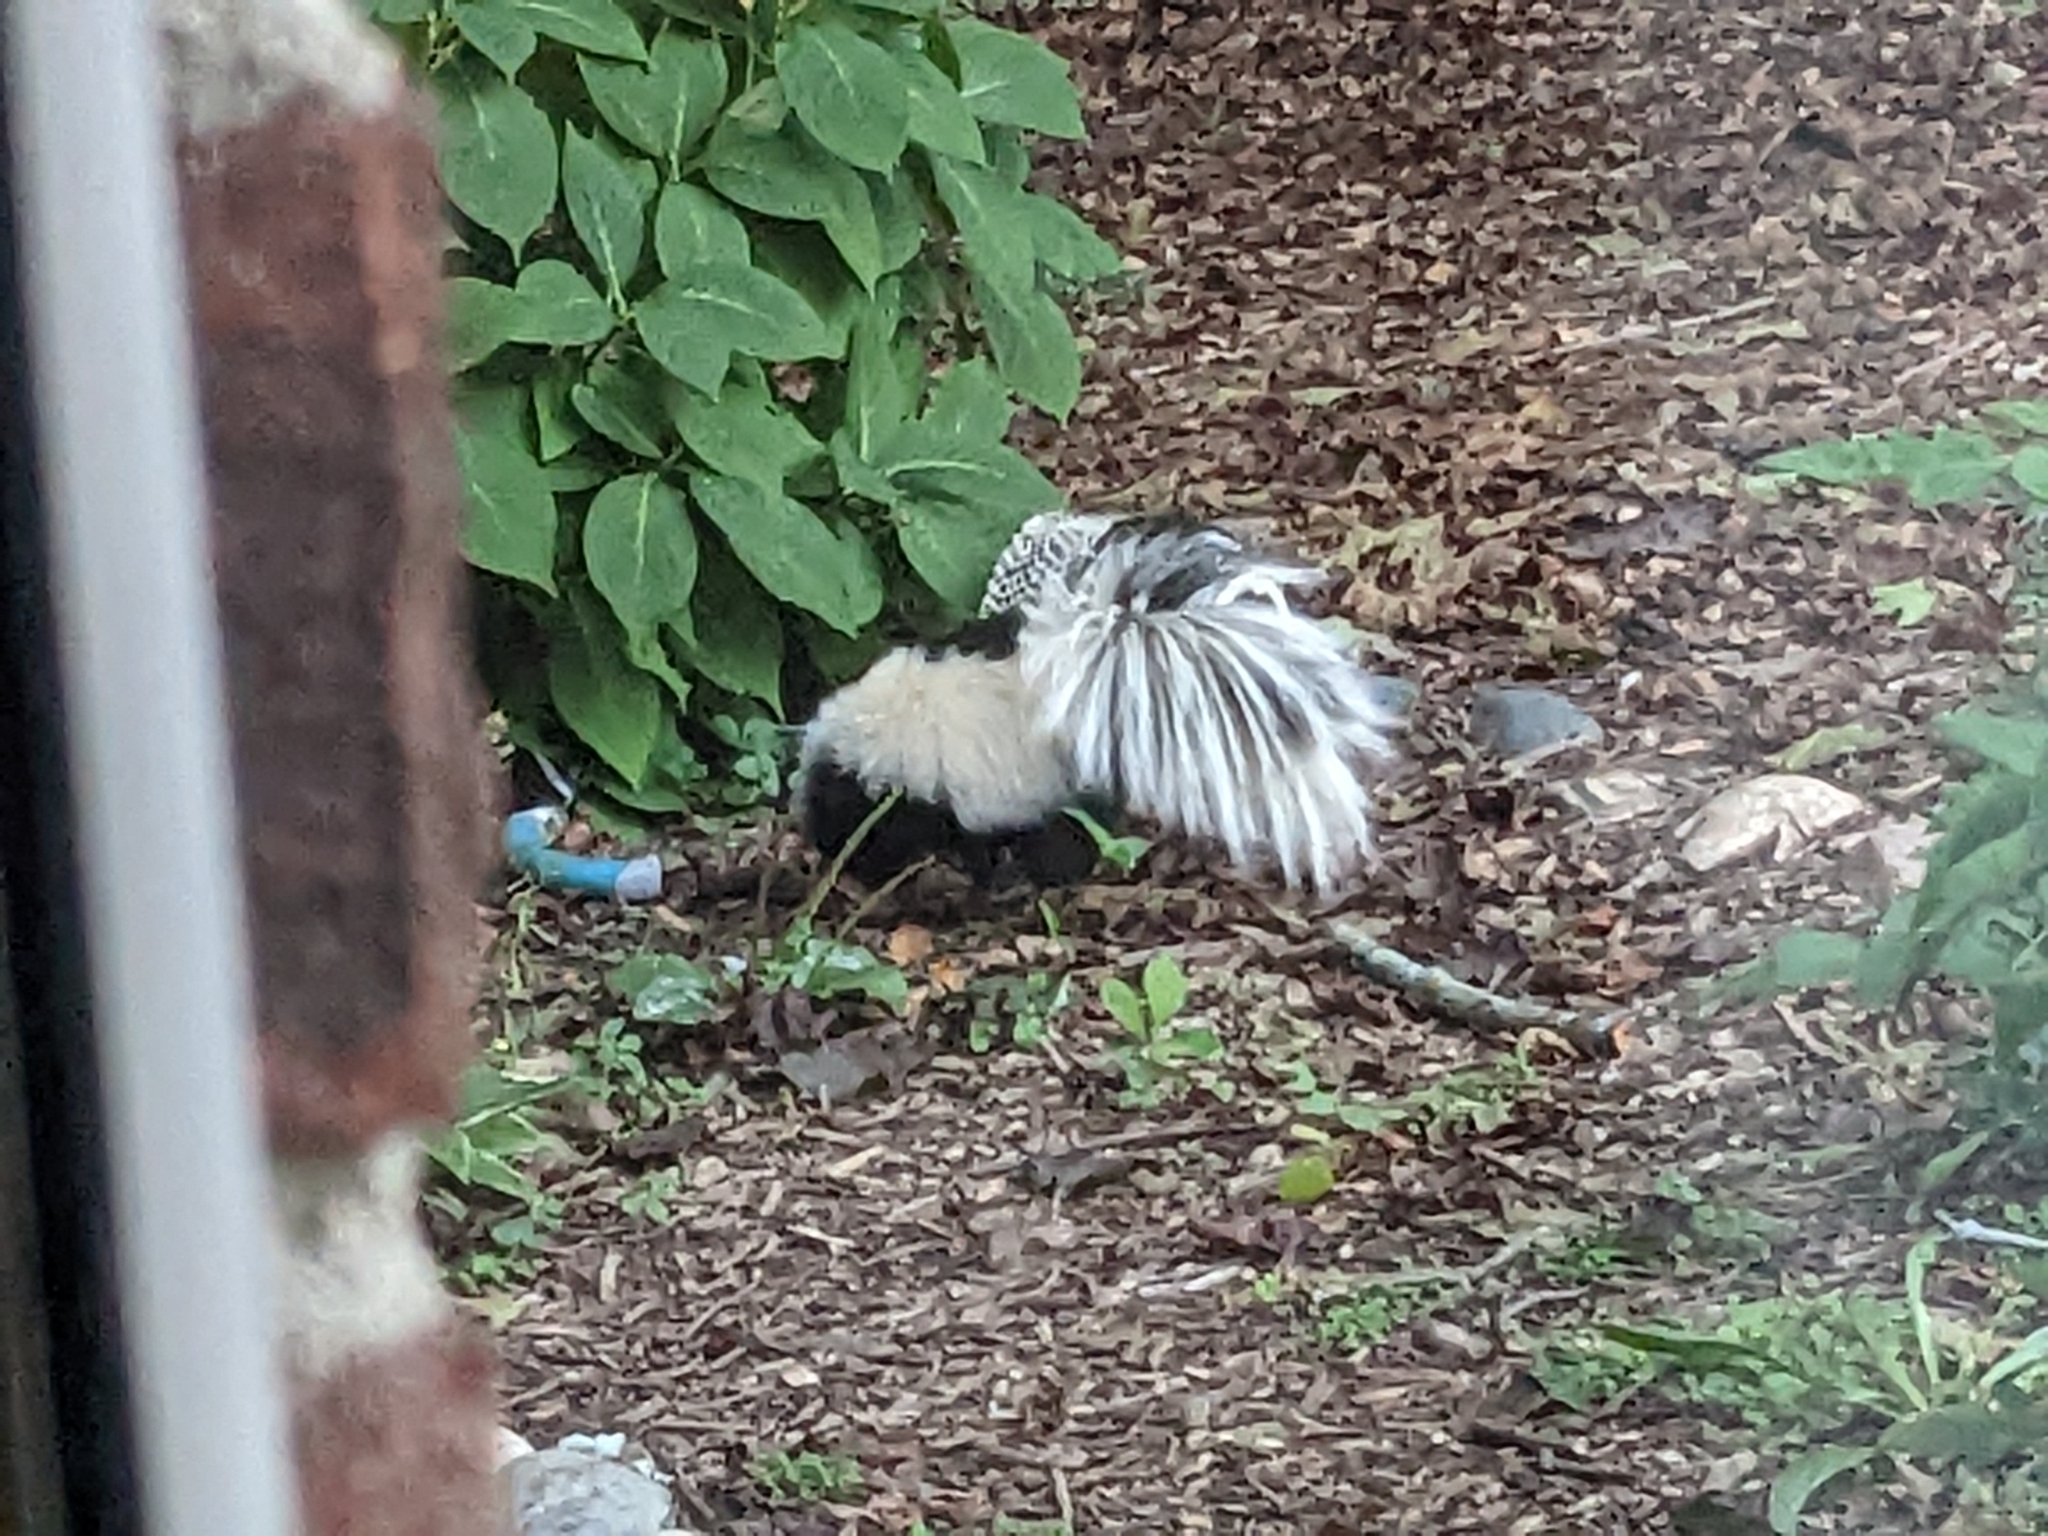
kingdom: Animalia
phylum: Chordata
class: Mammalia
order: Carnivora
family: Mephitidae
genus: Mephitis
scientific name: Mephitis mephitis
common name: Striped skunk
